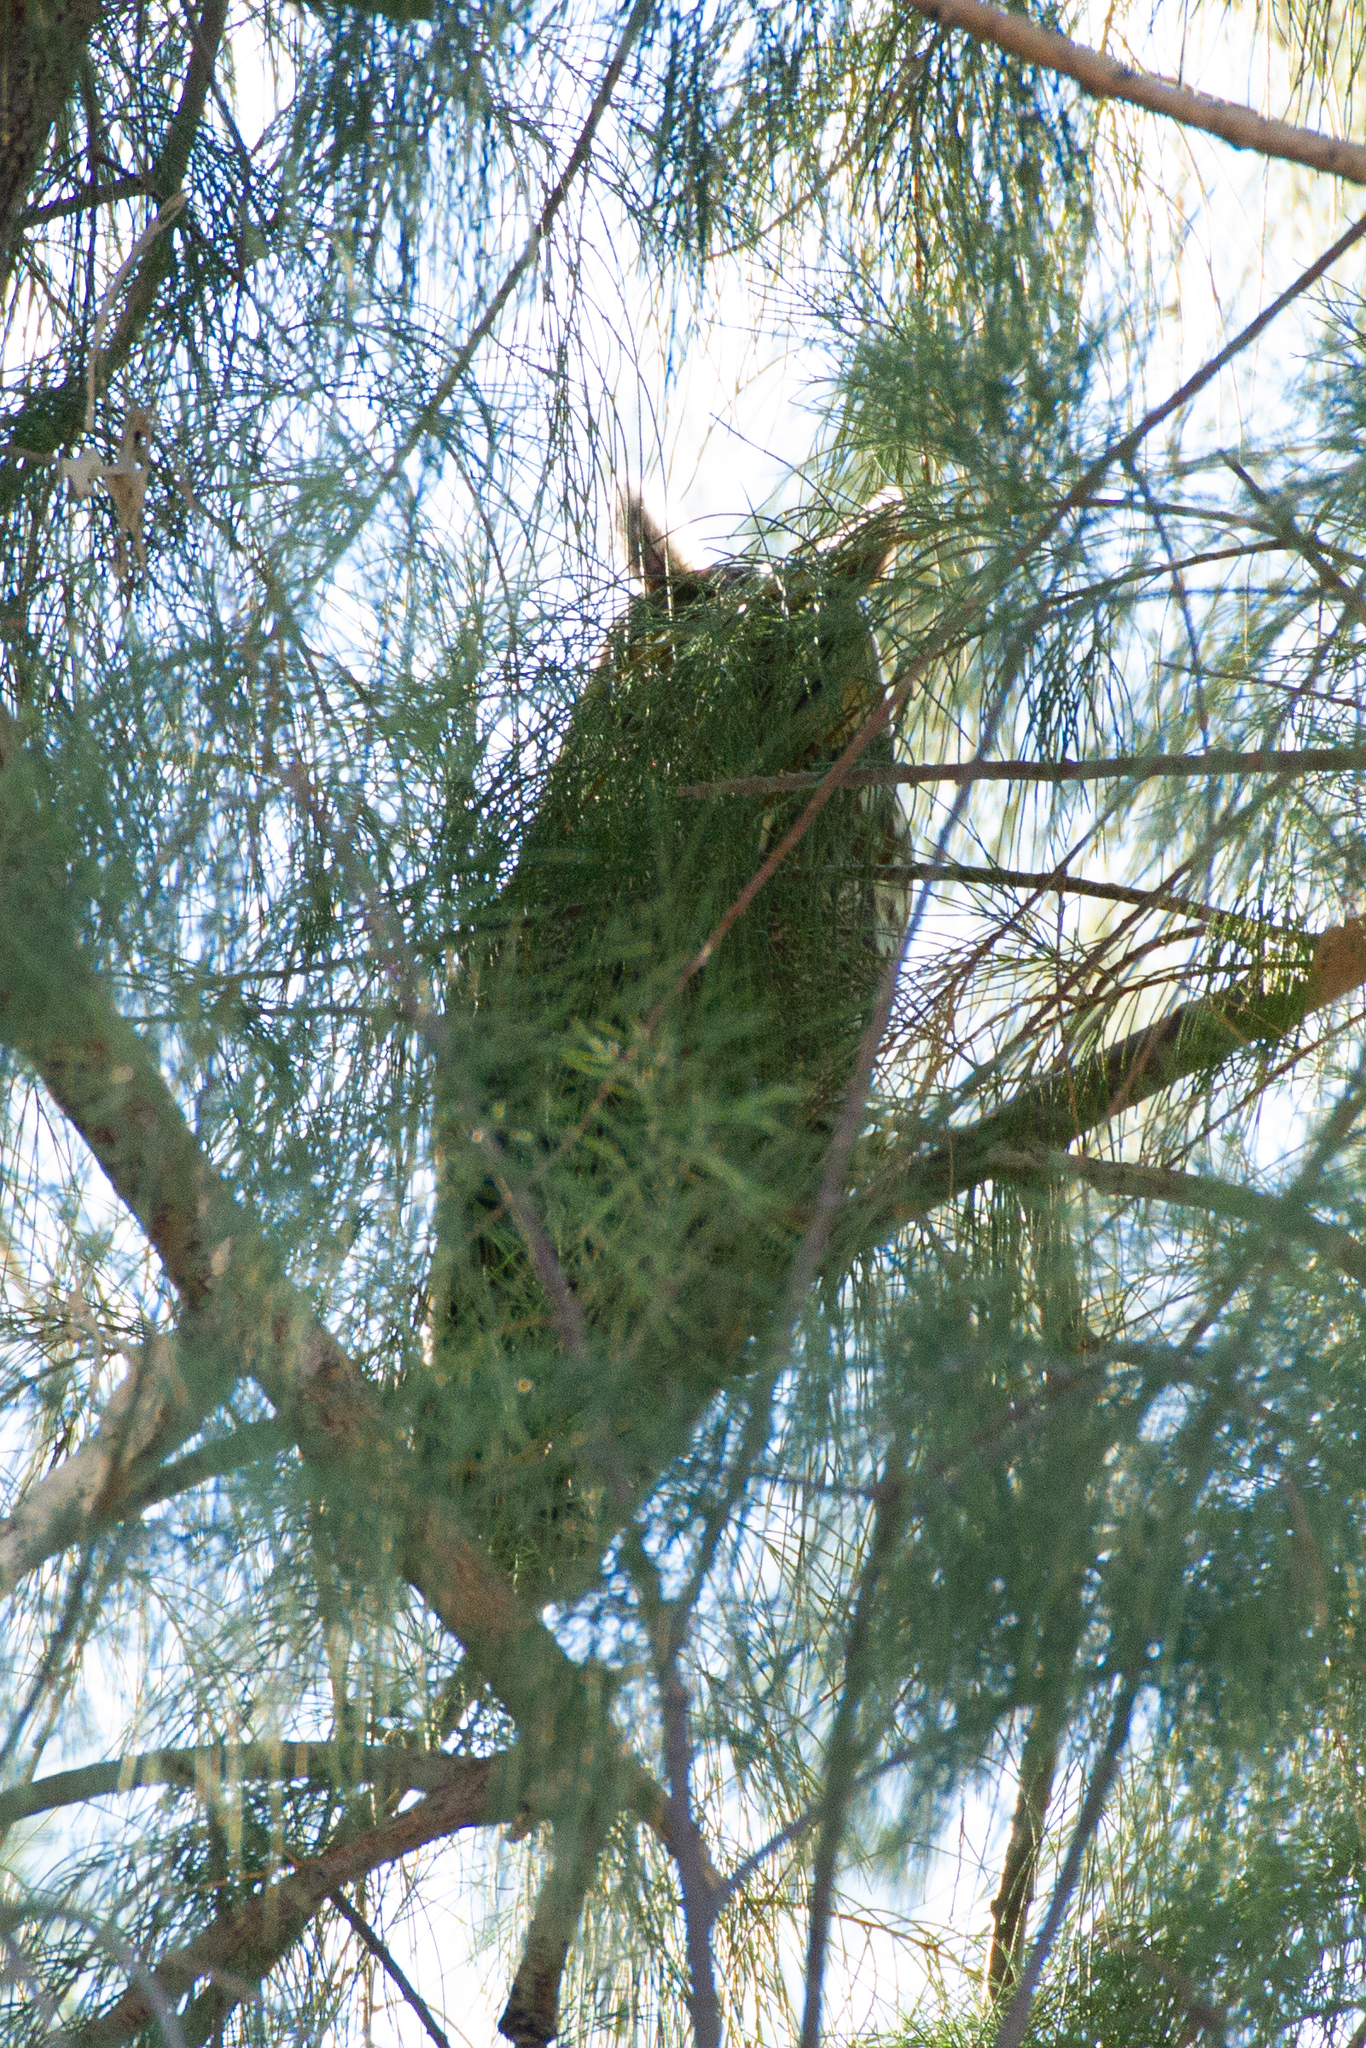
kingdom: Animalia
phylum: Chordata
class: Aves
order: Strigiformes
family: Strigidae
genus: Asio
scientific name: Asio otus
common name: Long-eared owl
